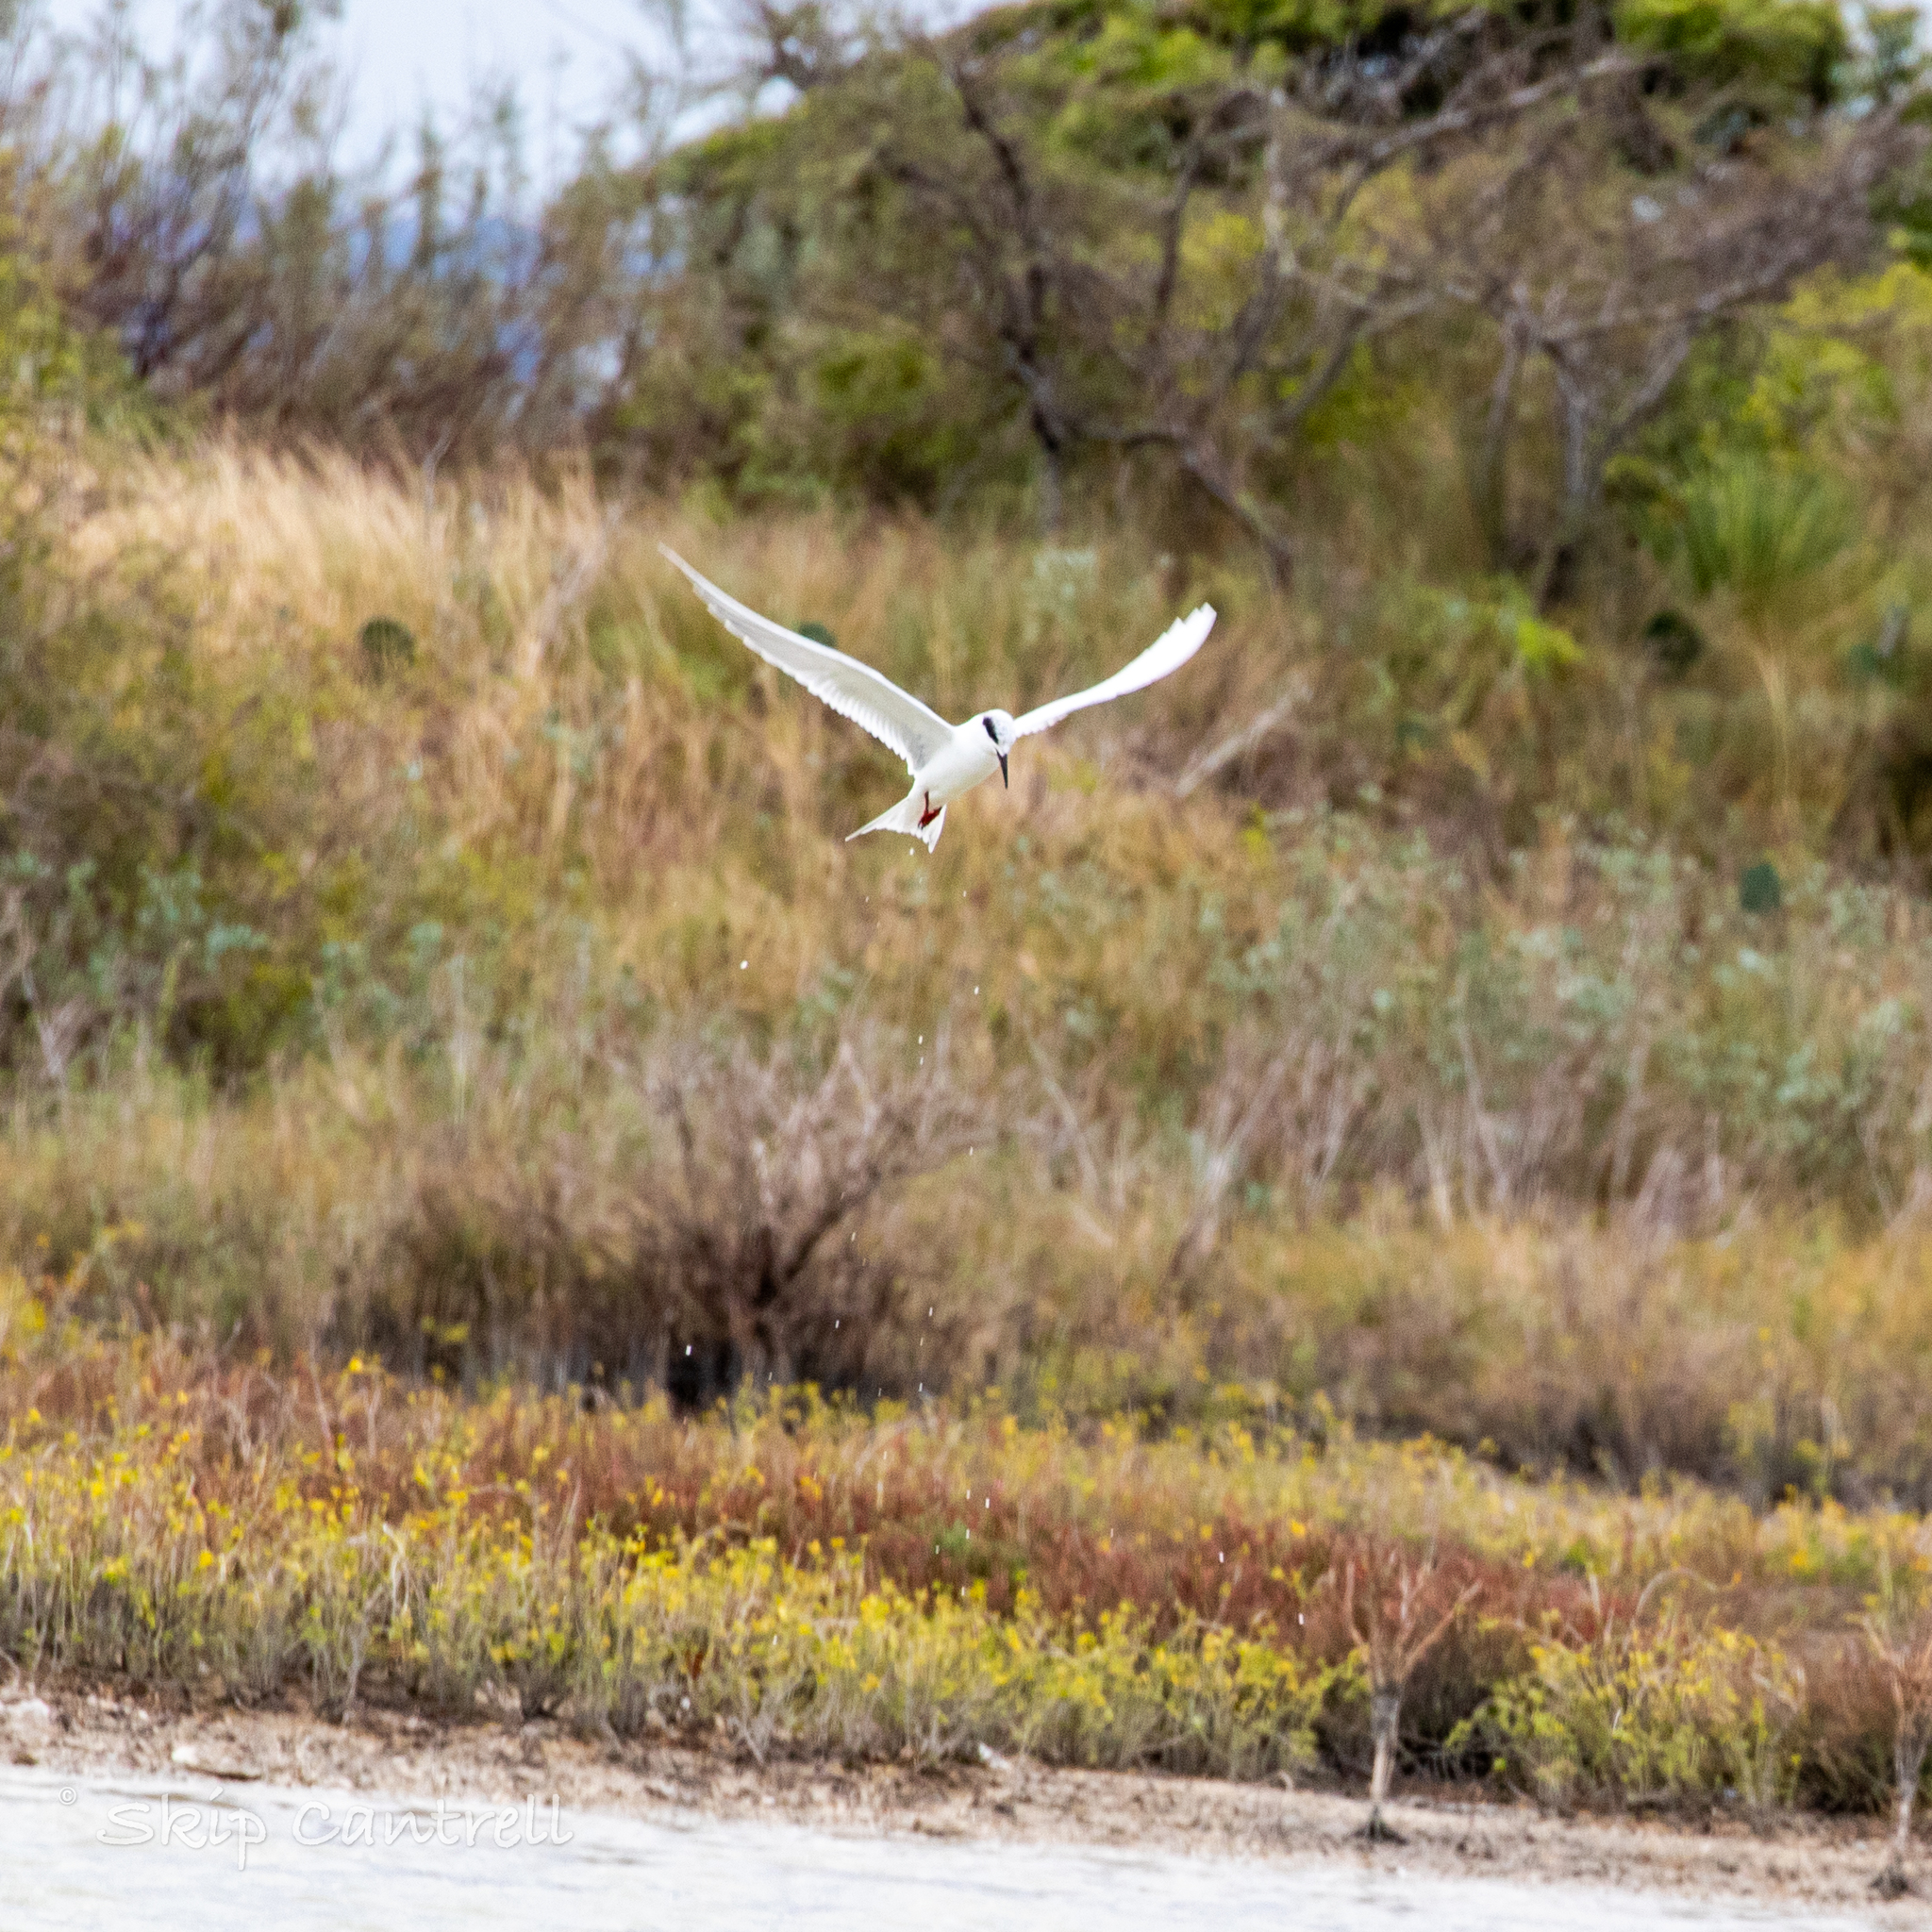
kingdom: Animalia
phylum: Chordata
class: Aves
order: Charadriiformes
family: Laridae
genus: Sterna
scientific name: Sterna forsteri
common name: Forster's tern
